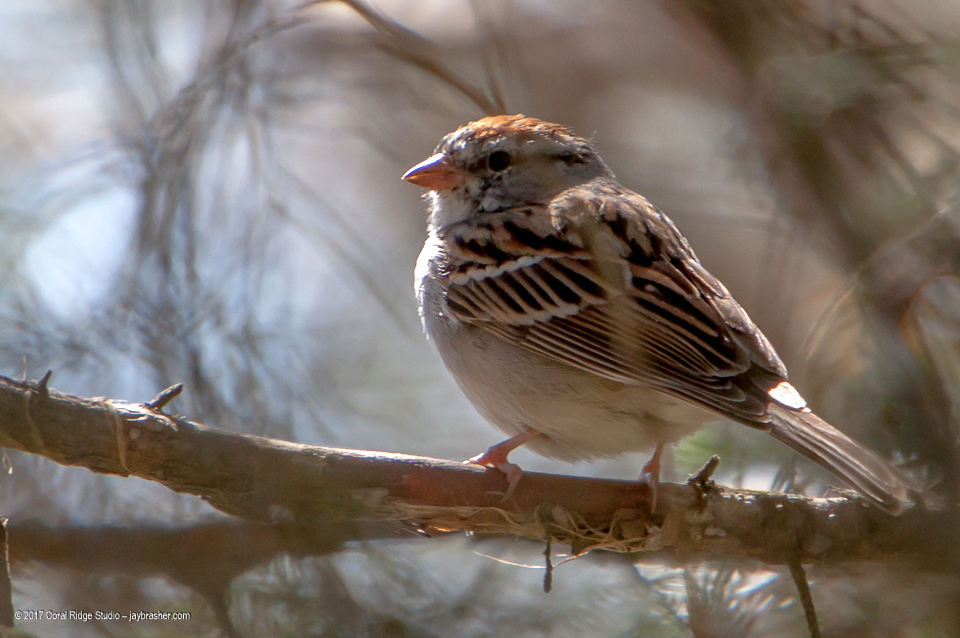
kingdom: Animalia
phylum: Chordata
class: Aves
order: Passeriformes
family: Passerellidae
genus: Spizella
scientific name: Spizella passerina
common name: Chipping sparrow
